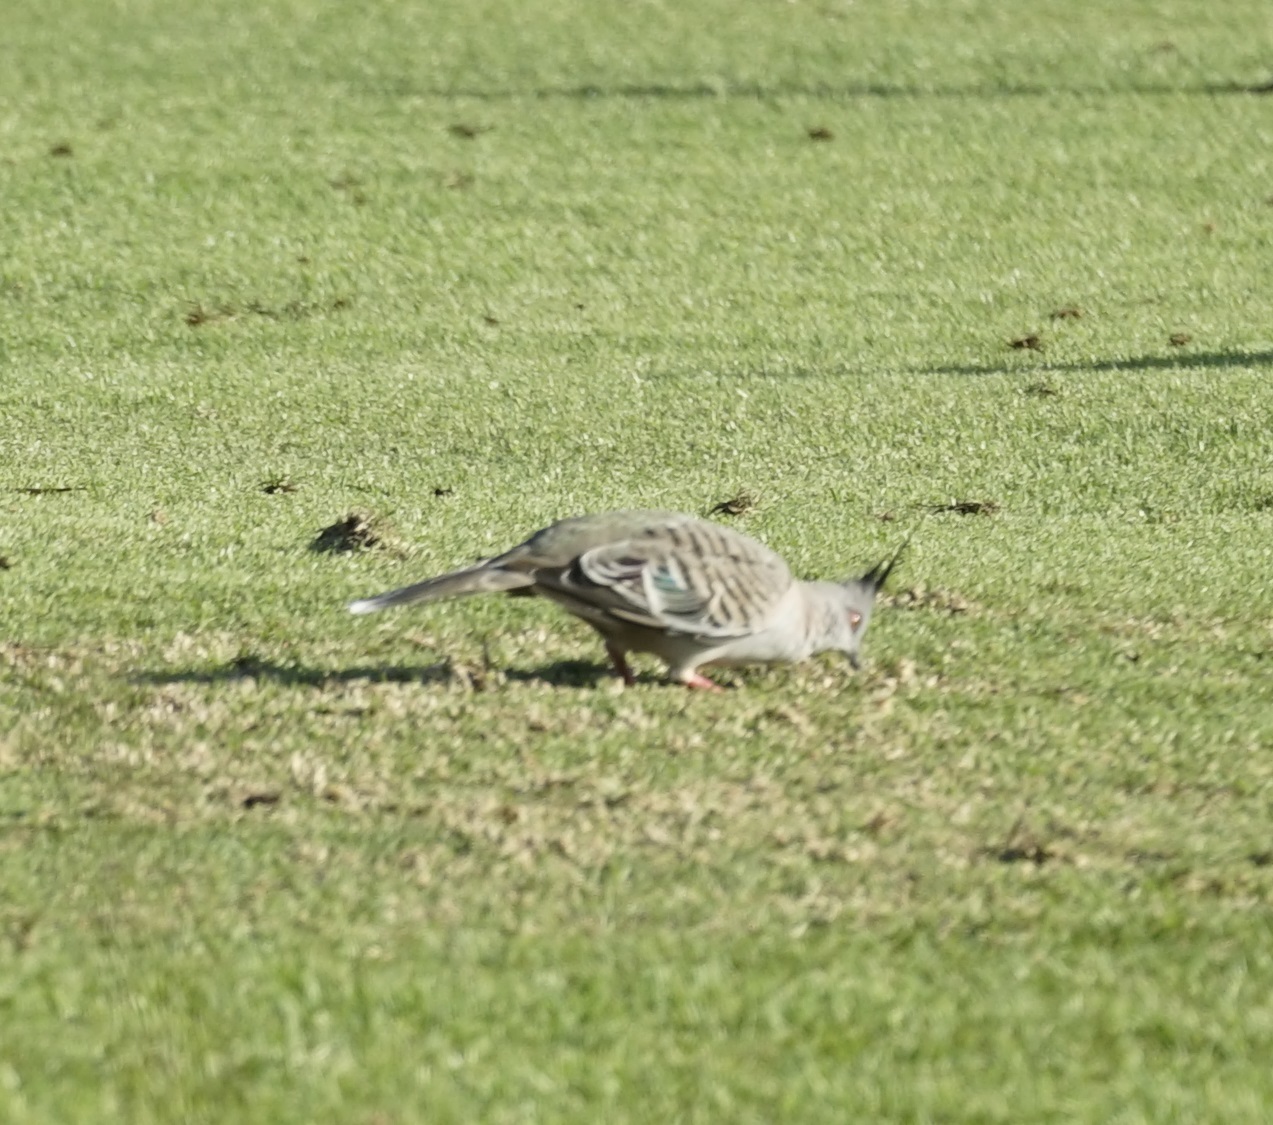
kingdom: Animalia
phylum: Chordata
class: Aves
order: Columbiformes
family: Columbidae
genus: Ocyphaps
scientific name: Ocyphaps lophotes
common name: Crested pigeon
